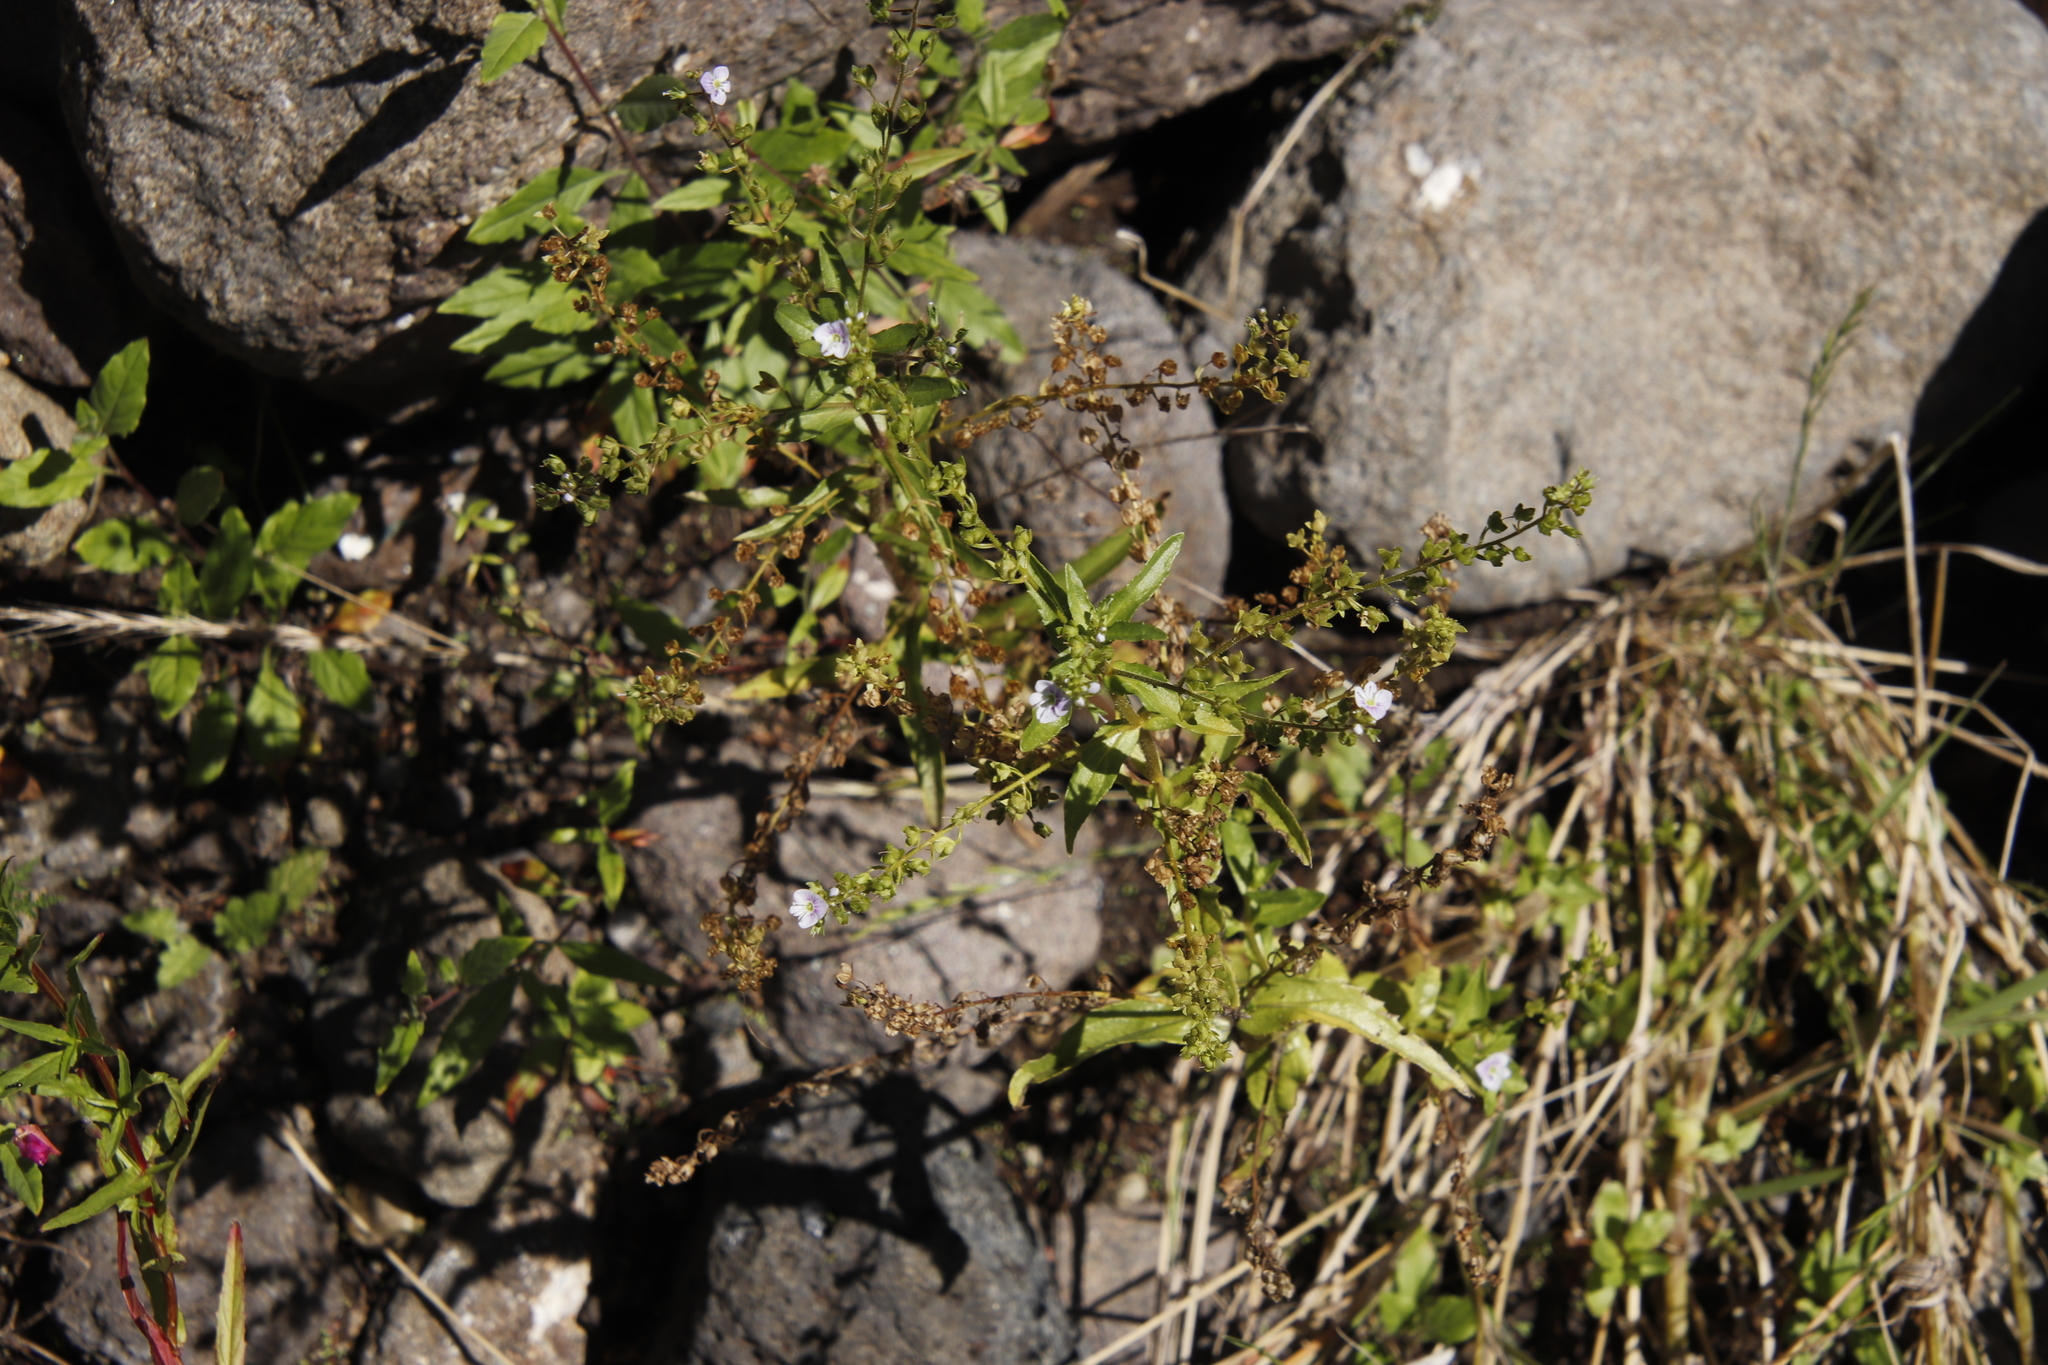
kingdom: Plantae
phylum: Tracheophyta
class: Magnoliopsida
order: Lamiales
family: Plantaginaceae
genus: Veronica
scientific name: Veronica anagallis-aquatica
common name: Water speedwell
